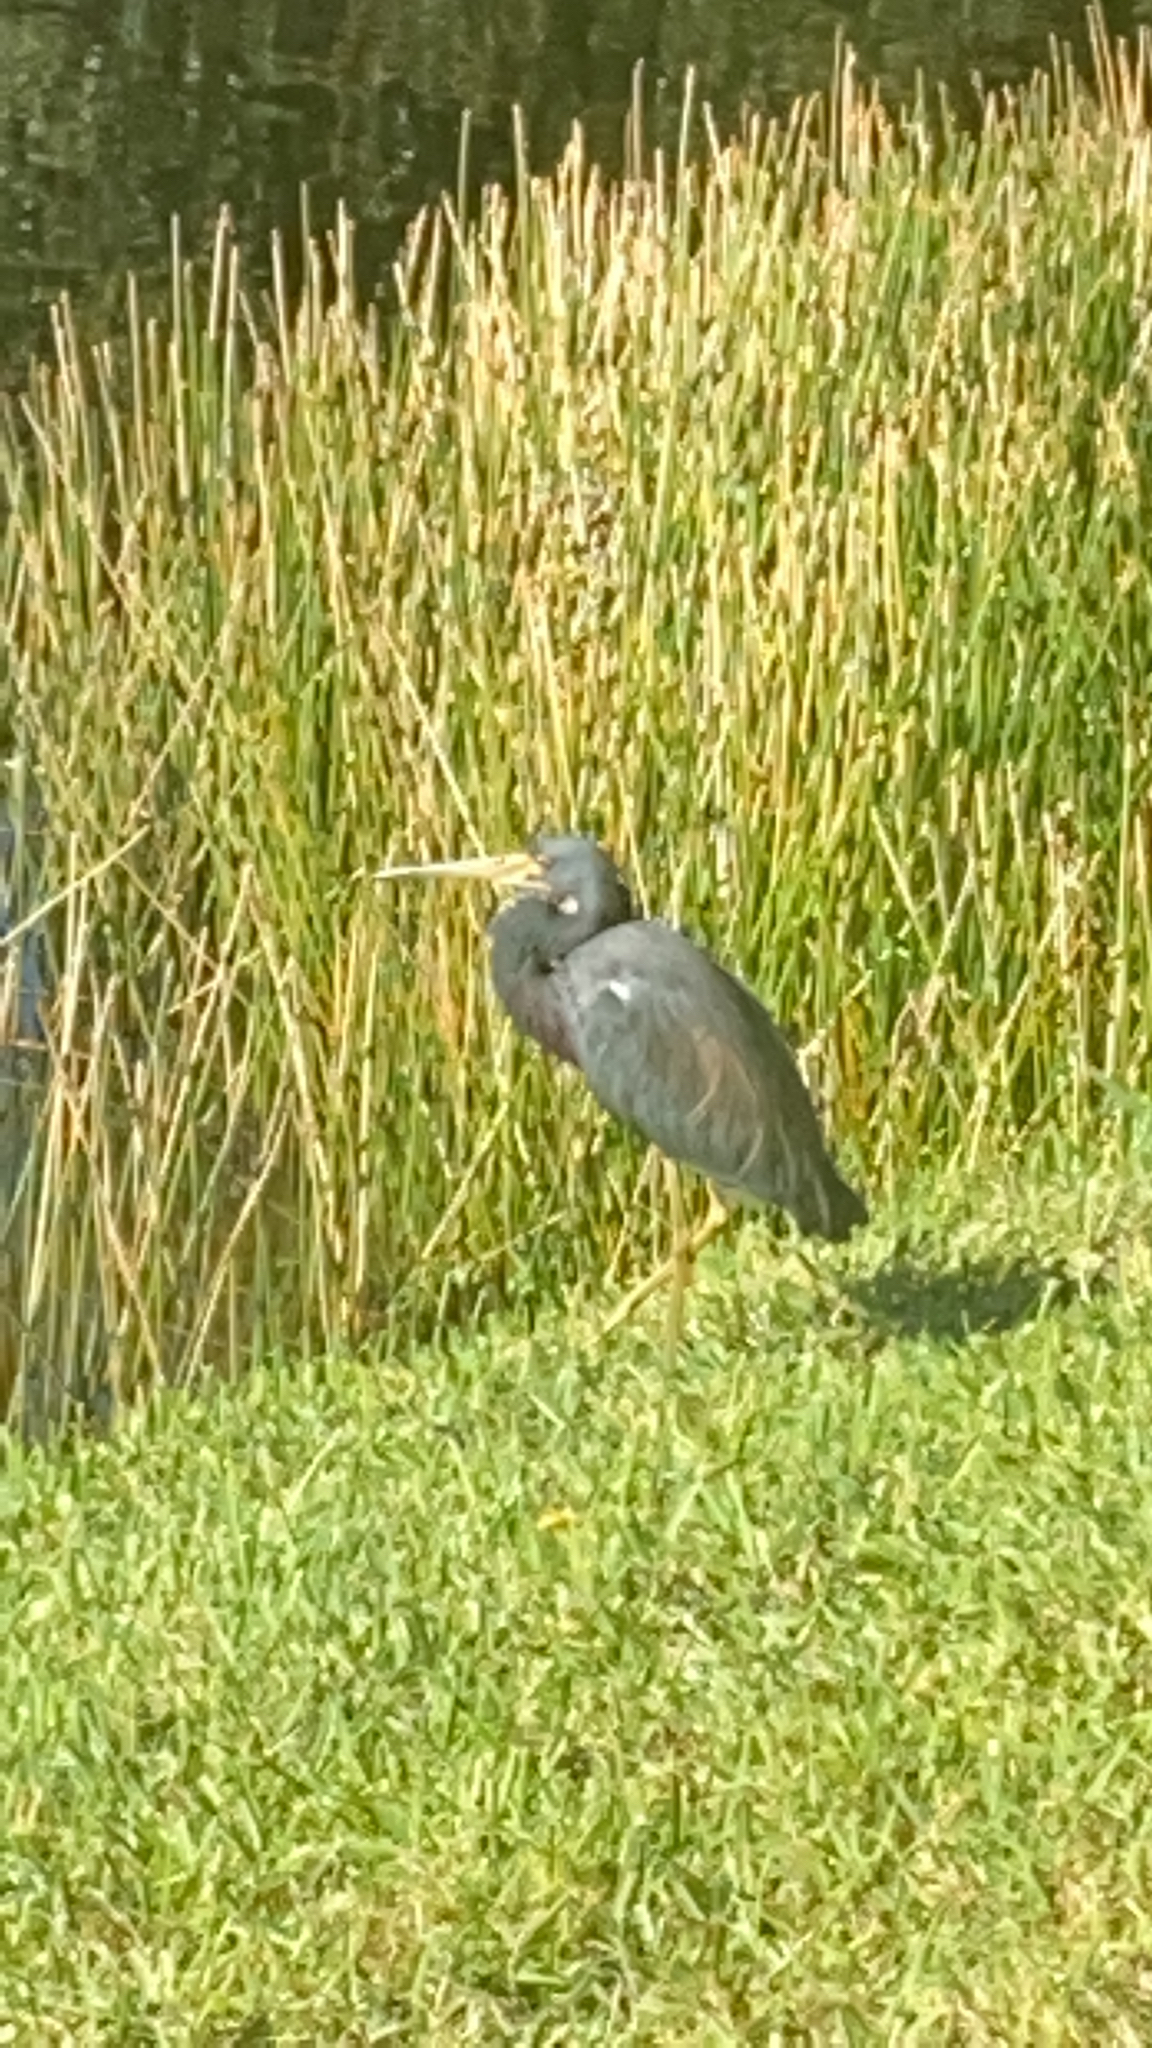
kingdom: Animalia
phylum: Chordata
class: Aves
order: Pelecaniformes
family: Ardeidae
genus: Egretta
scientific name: Egretta tricolor
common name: Tricolored heron
